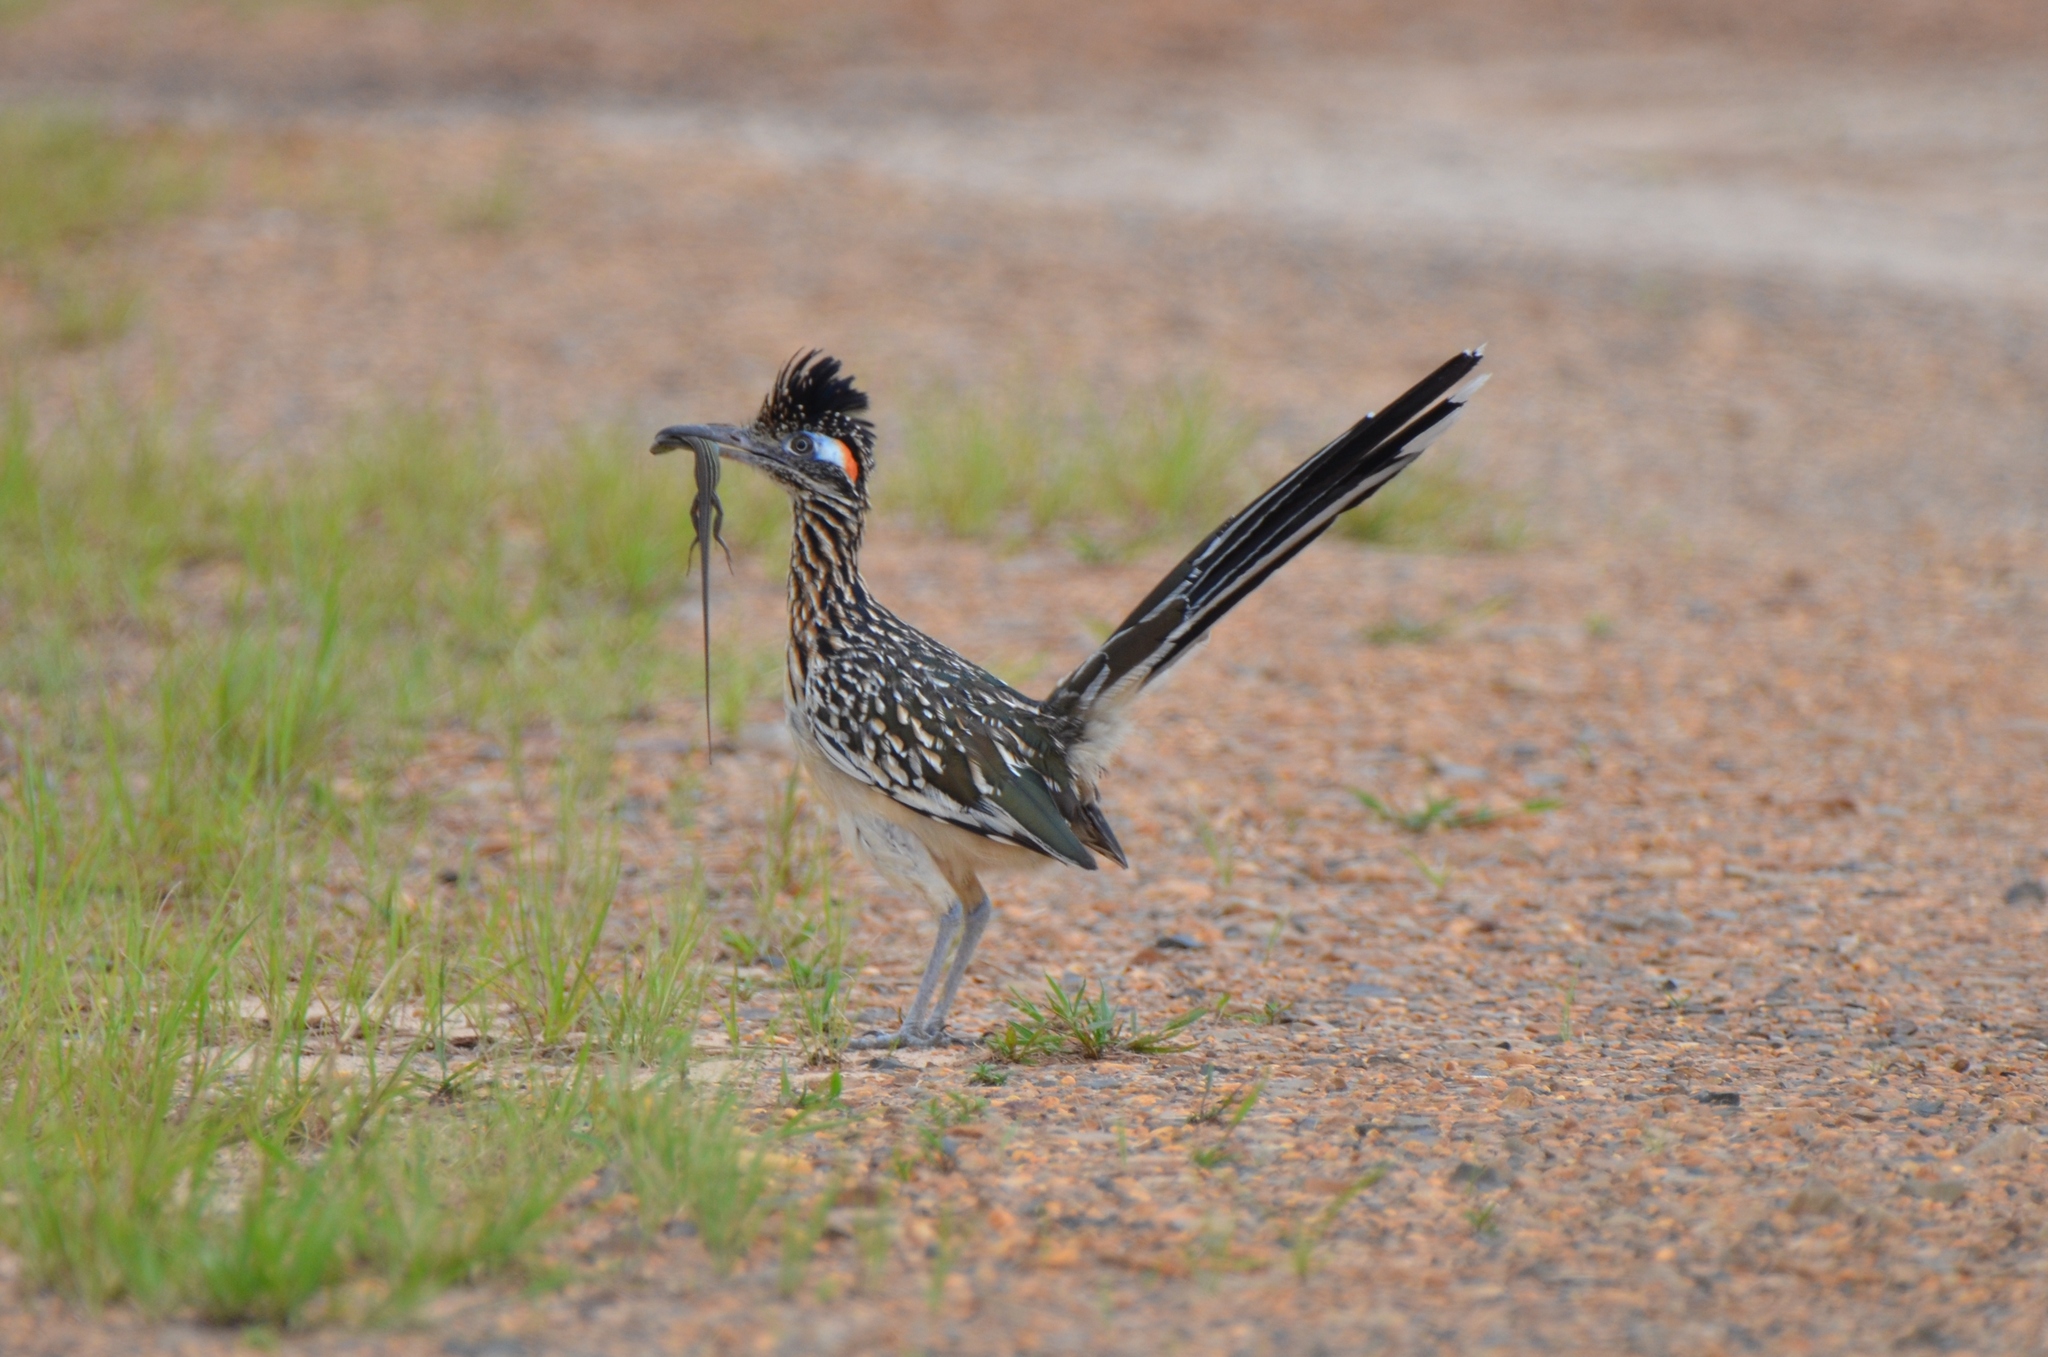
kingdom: Animalia
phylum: Chordata
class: Aves
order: Cuculiformes
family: Cuculidae
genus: Geococcyx
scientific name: Geococcyx californianus
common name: Greater roadrunner
